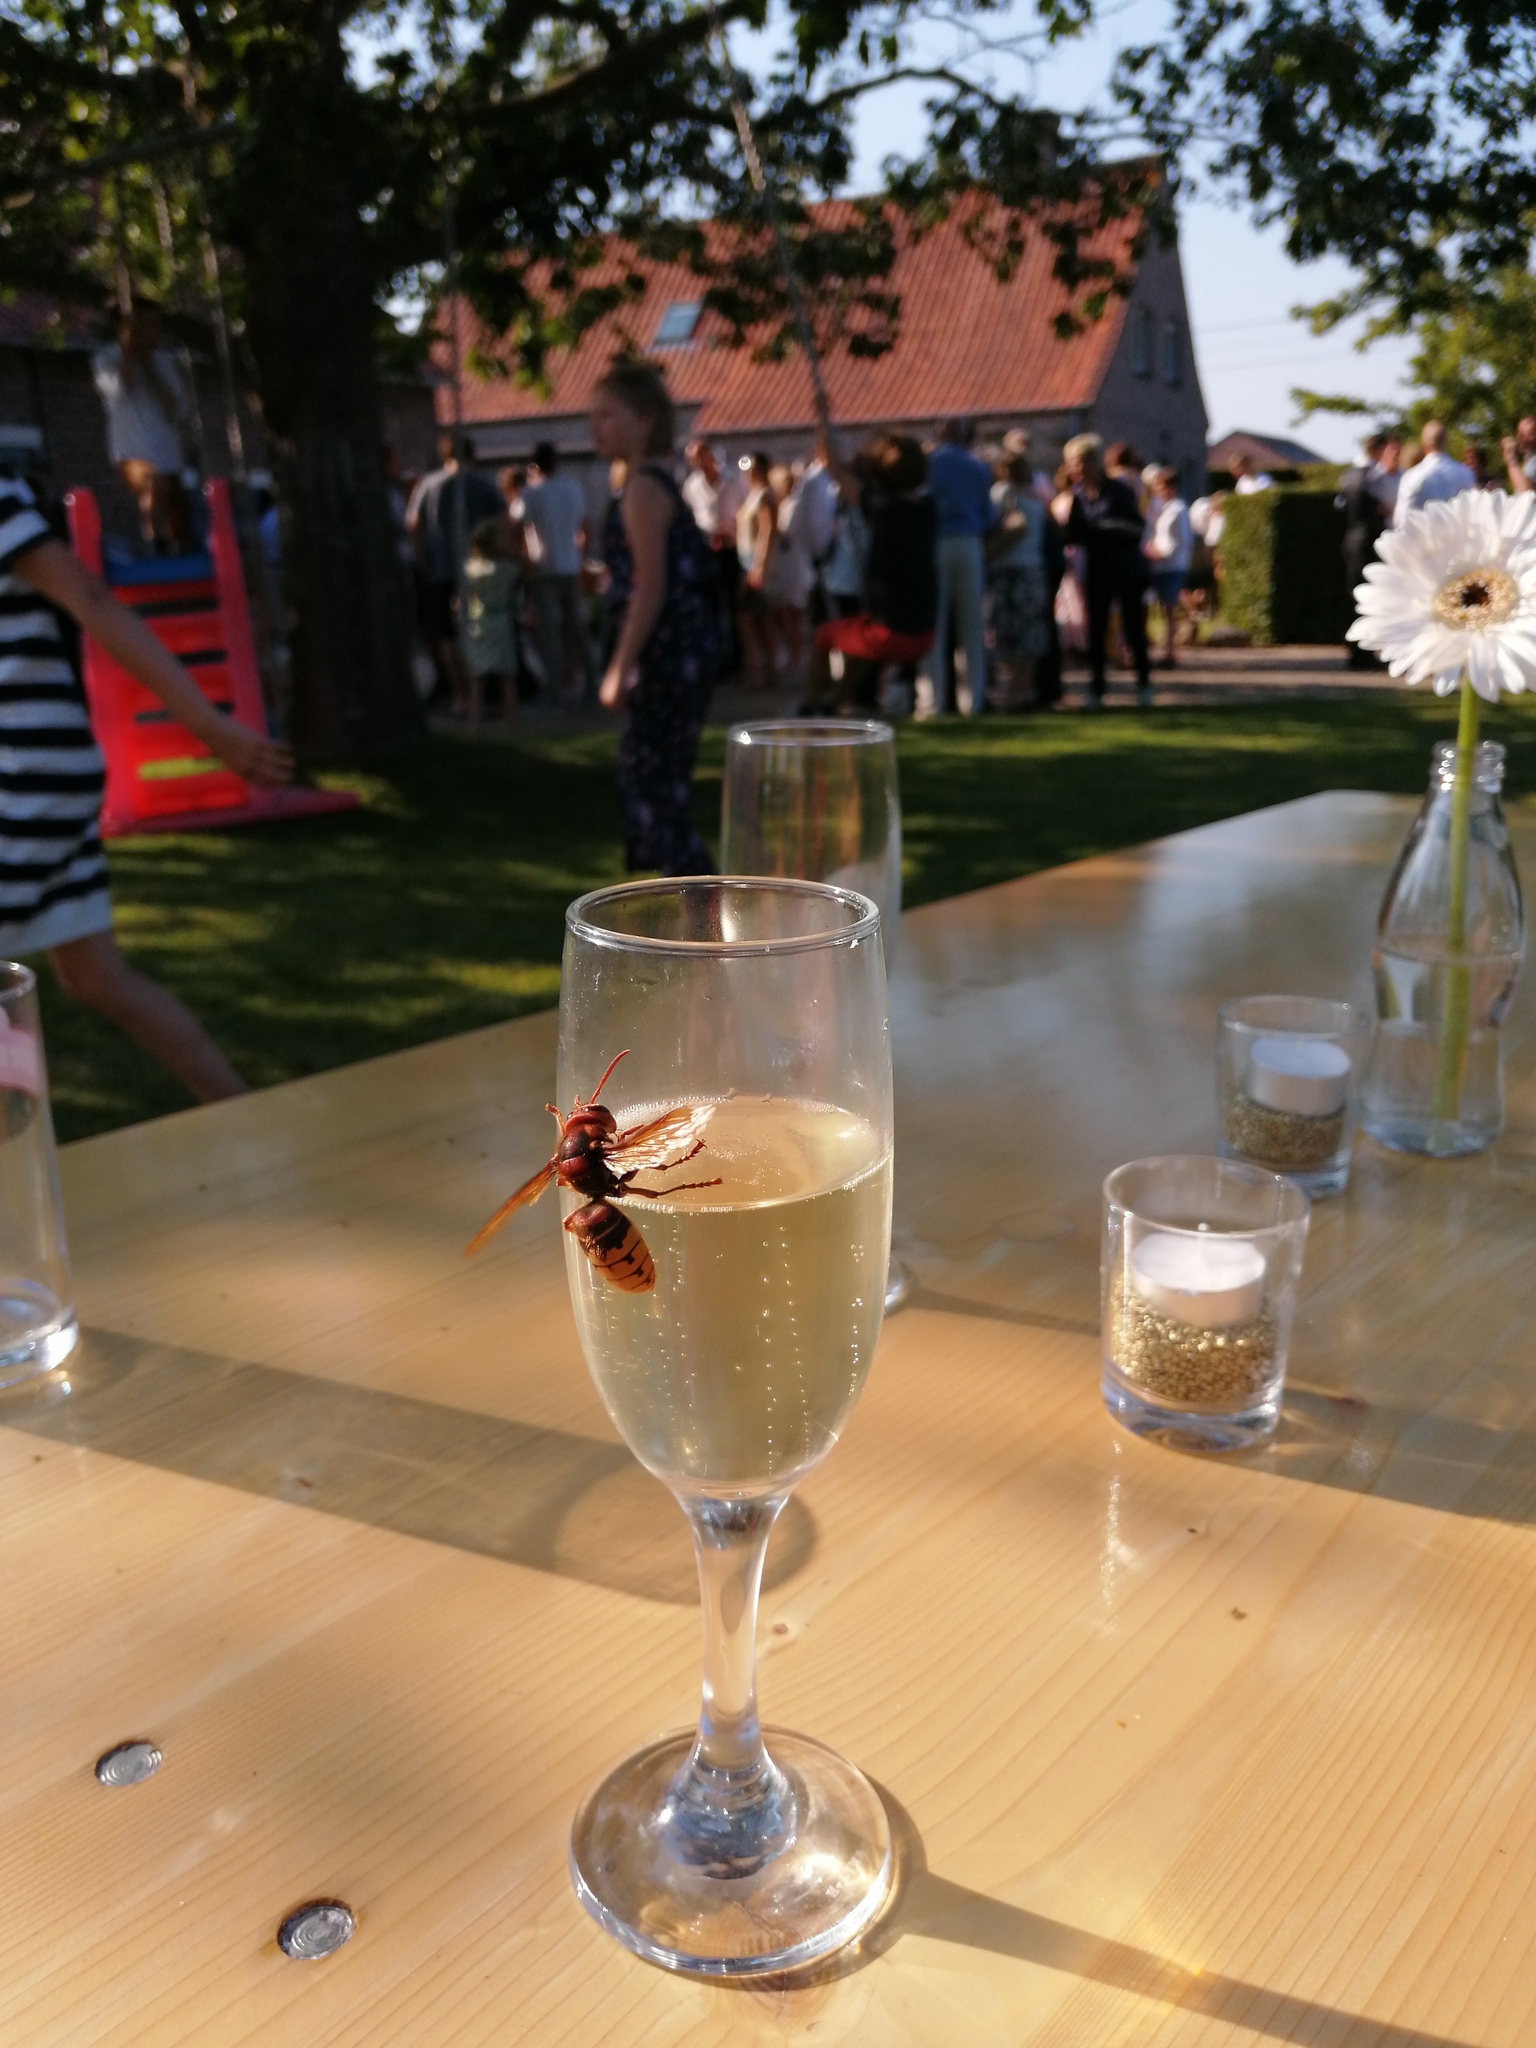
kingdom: Animalia
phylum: Arthropoda
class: Insecta
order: Hymenoptera
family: Vespidae
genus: Vespa
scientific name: Vespa crabro
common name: Hornet
